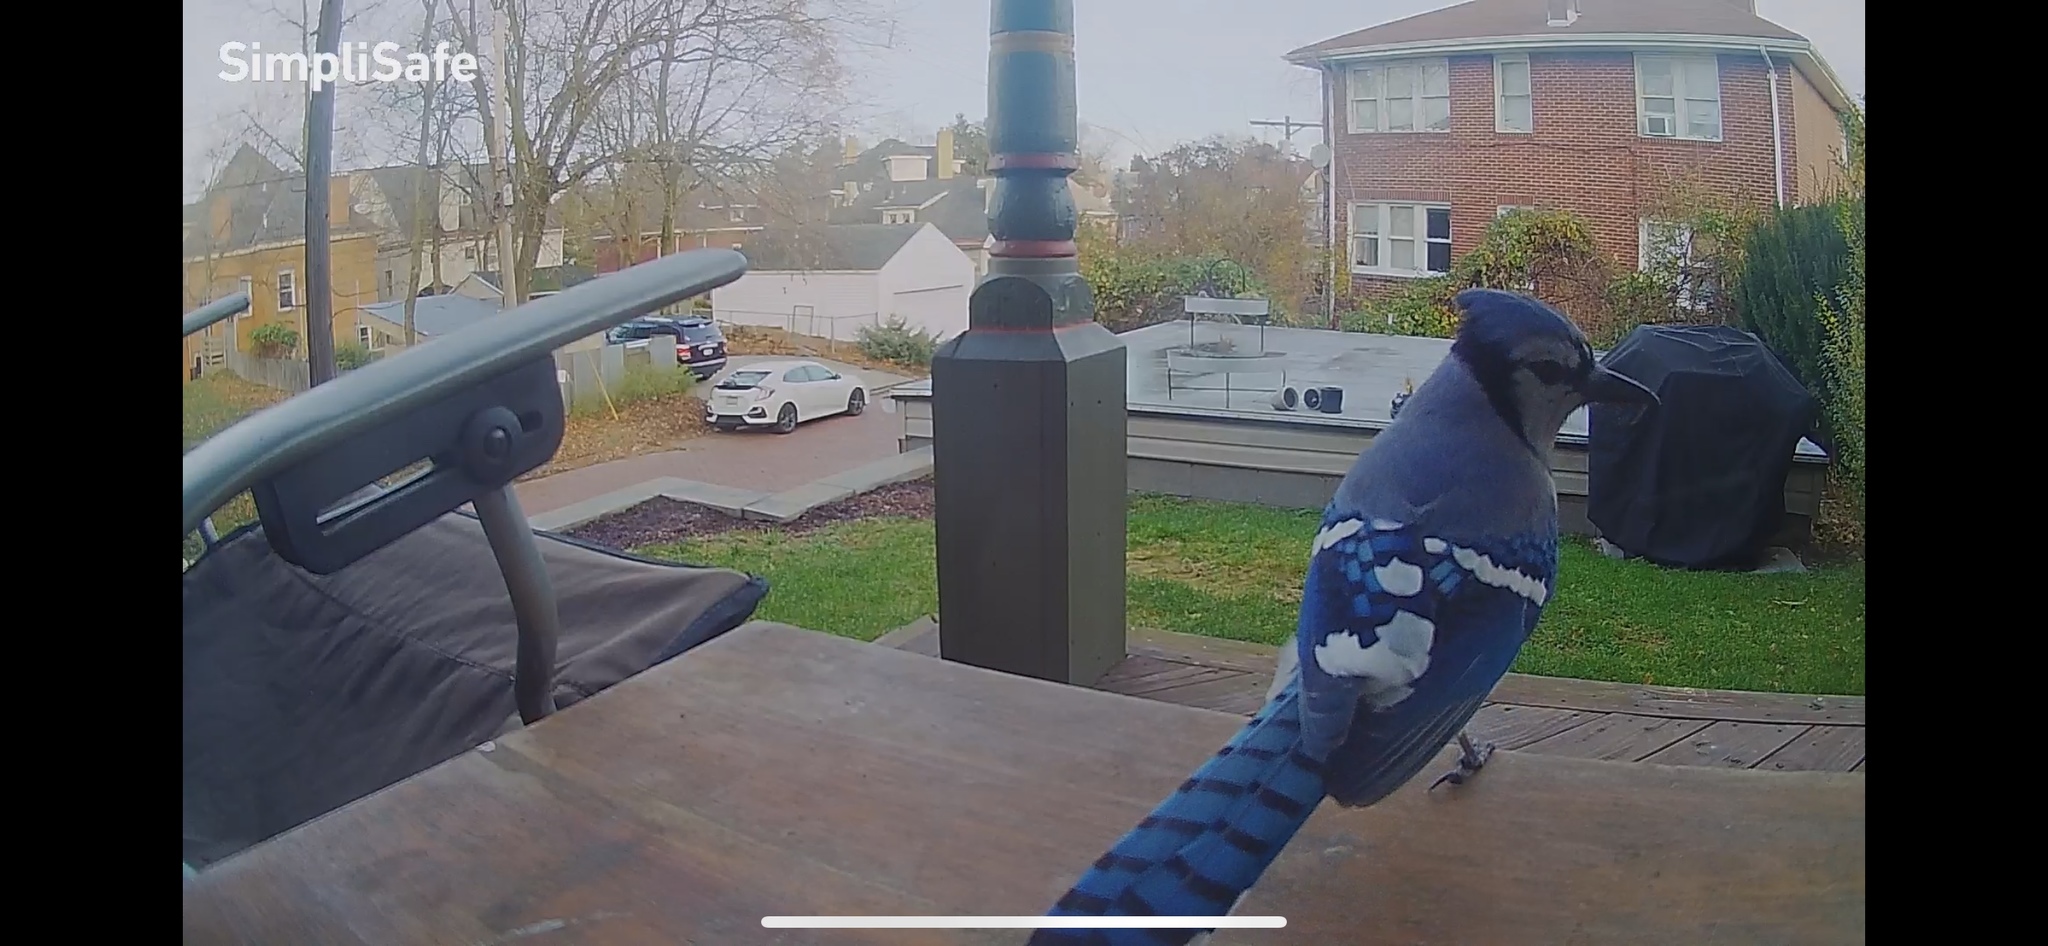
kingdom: Animalia
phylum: Chordata
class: Aves
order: Passeriformes
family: Corvidae
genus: Cyanocitta
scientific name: Cyanocitta cristata
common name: Blue jay
